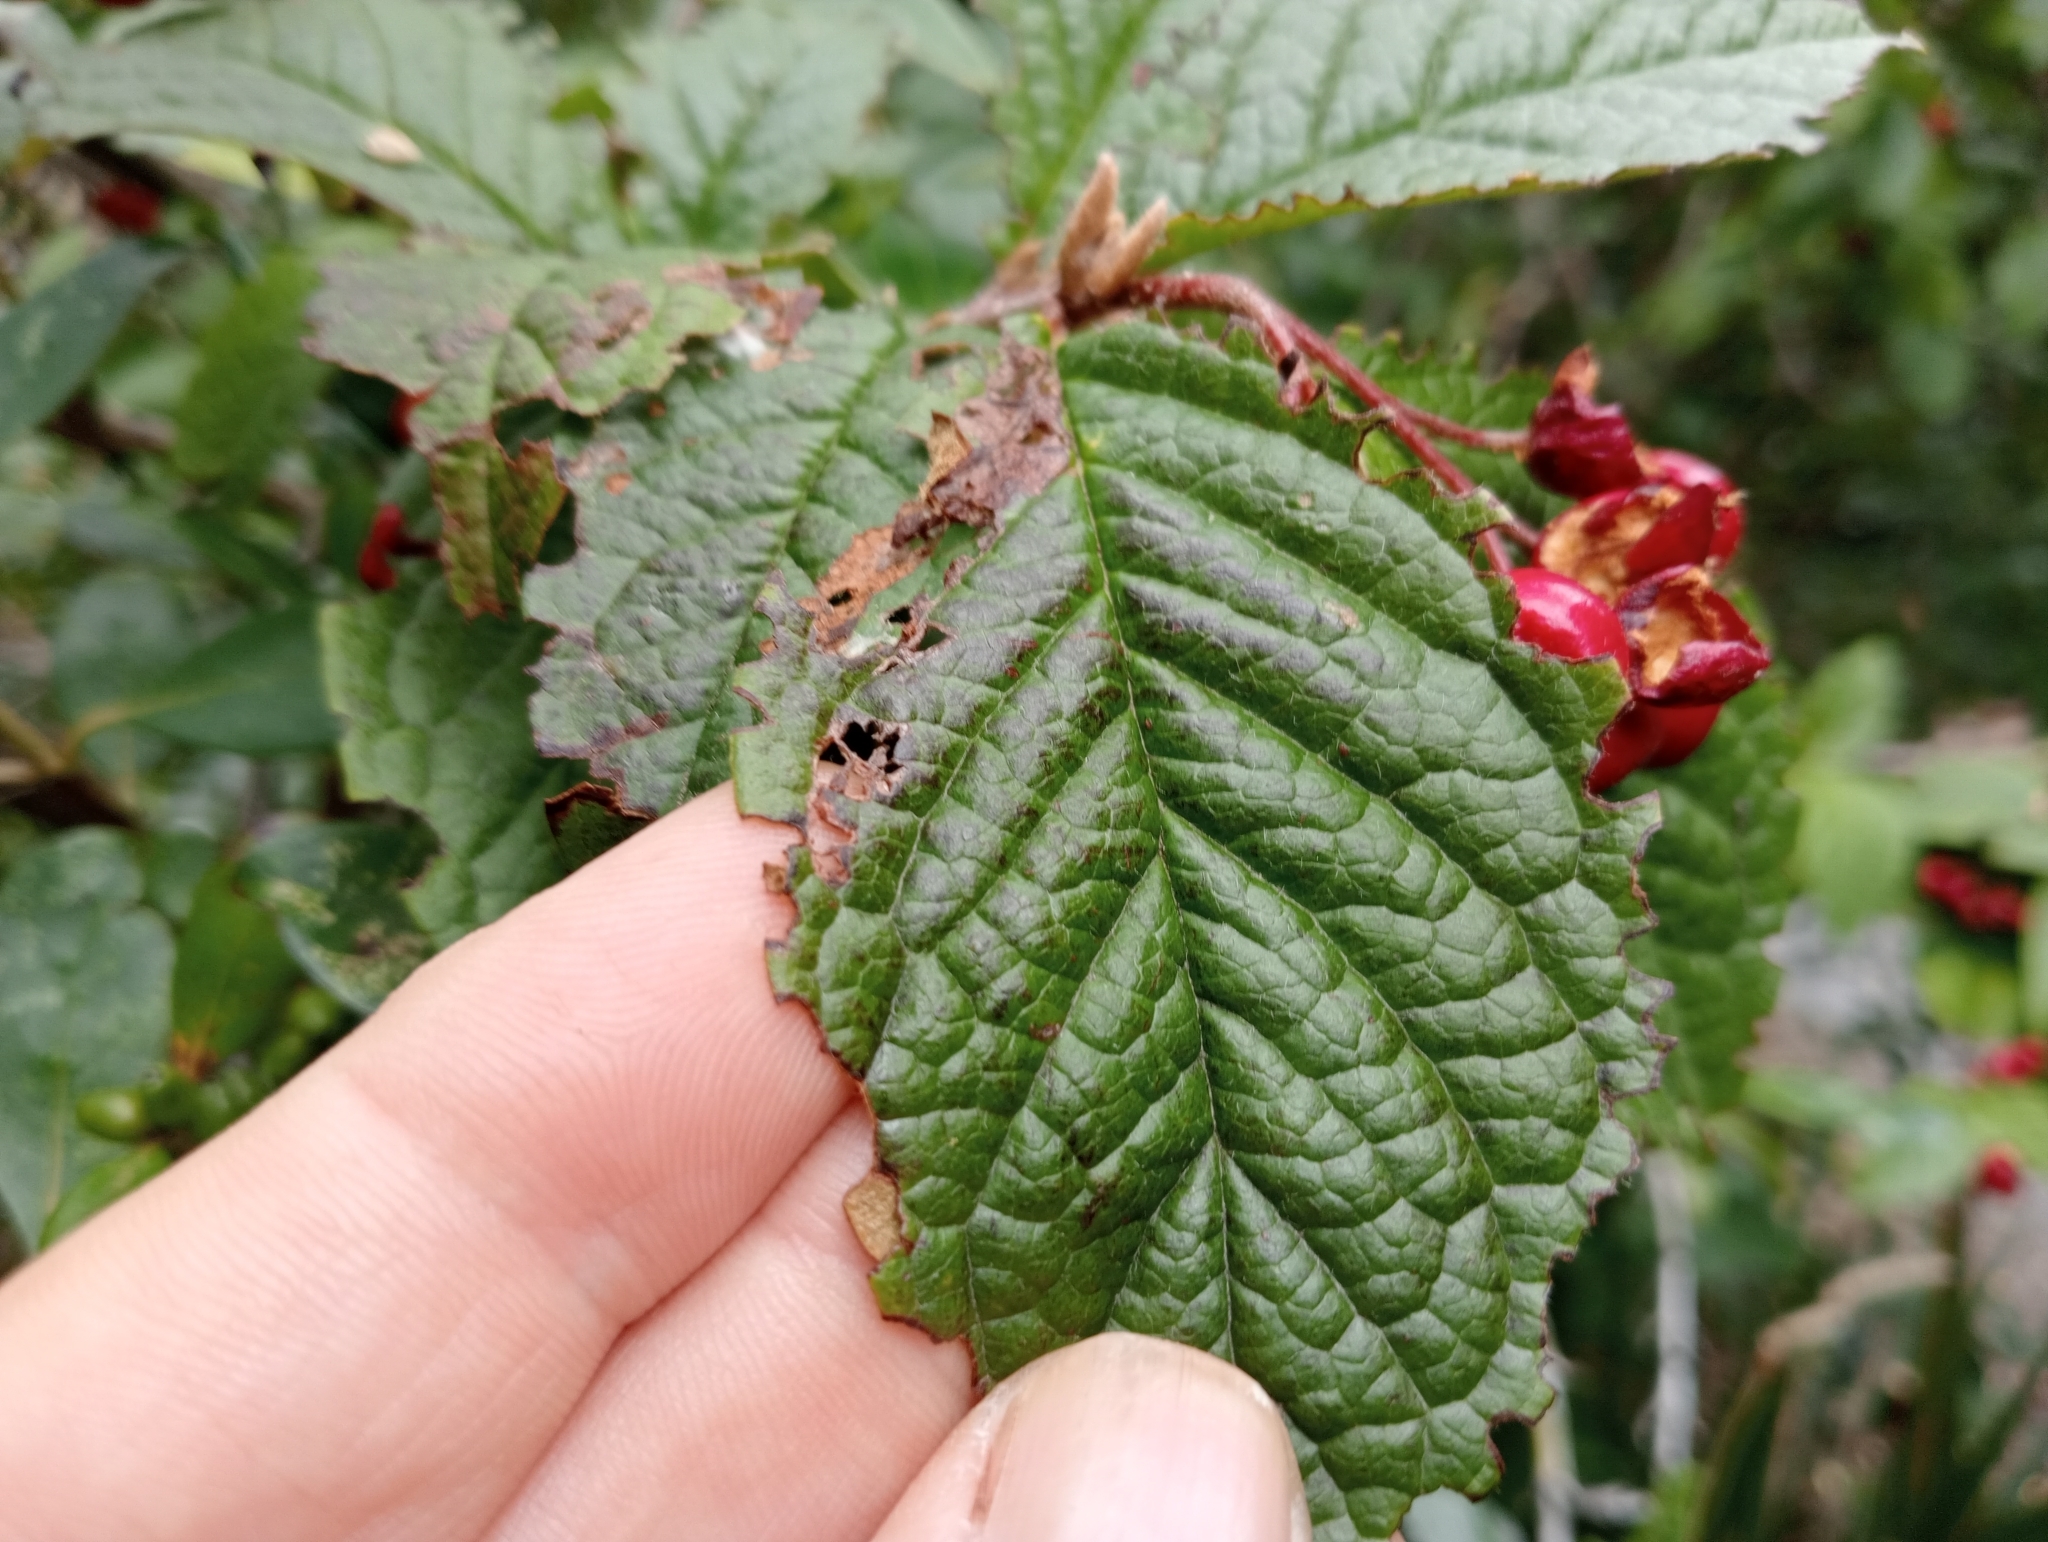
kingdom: Plantae
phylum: Tracheophyta
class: Magnoliopsida
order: Rosales
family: Rosaceae
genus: Cotoneaster
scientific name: Cotoneaster bullatus
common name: Hollyberry cotoneaster
